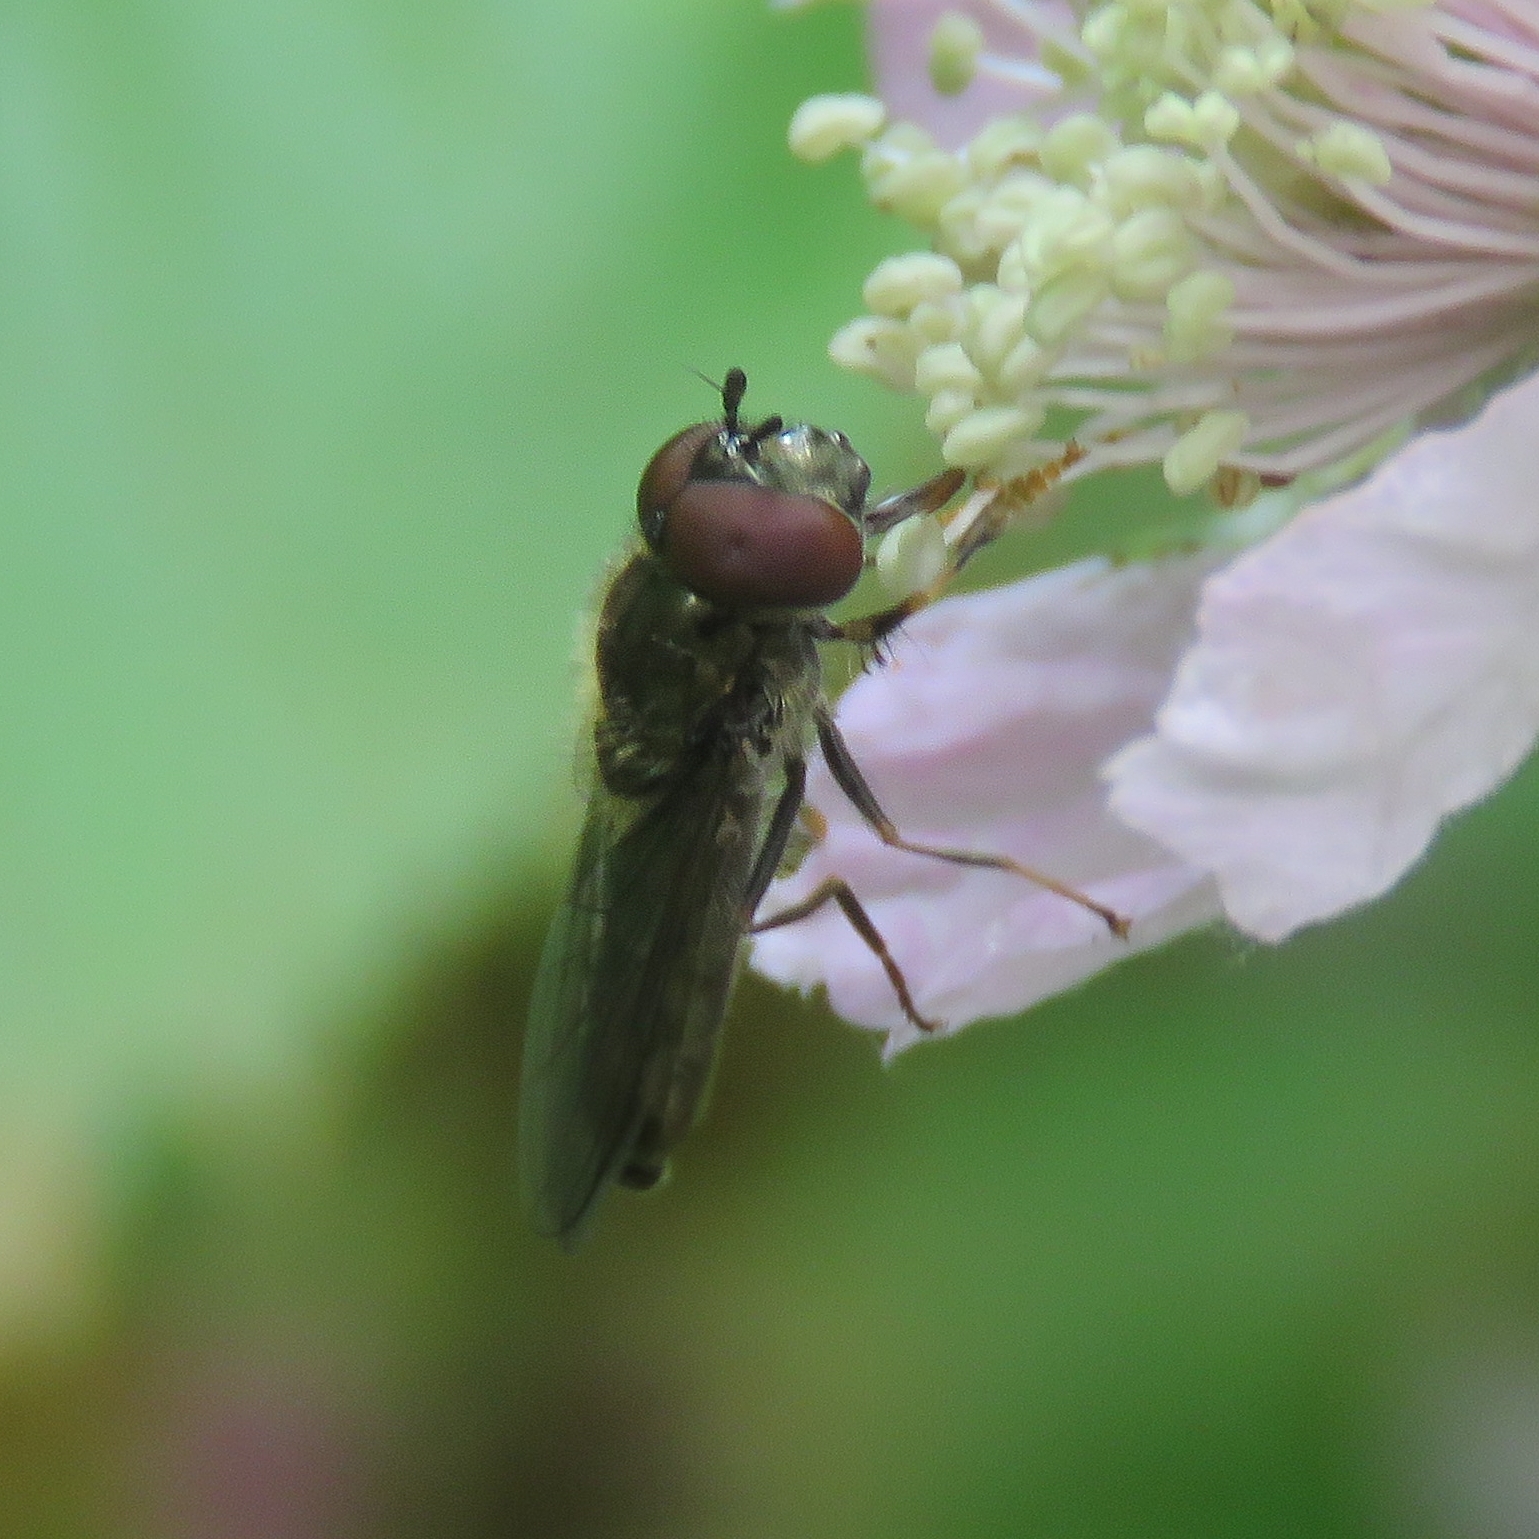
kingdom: Animalia
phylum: Arthropoda
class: Insecta
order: Diptera
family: Syrphidae
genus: Platycheirus
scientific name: Platycheirus albimanus
